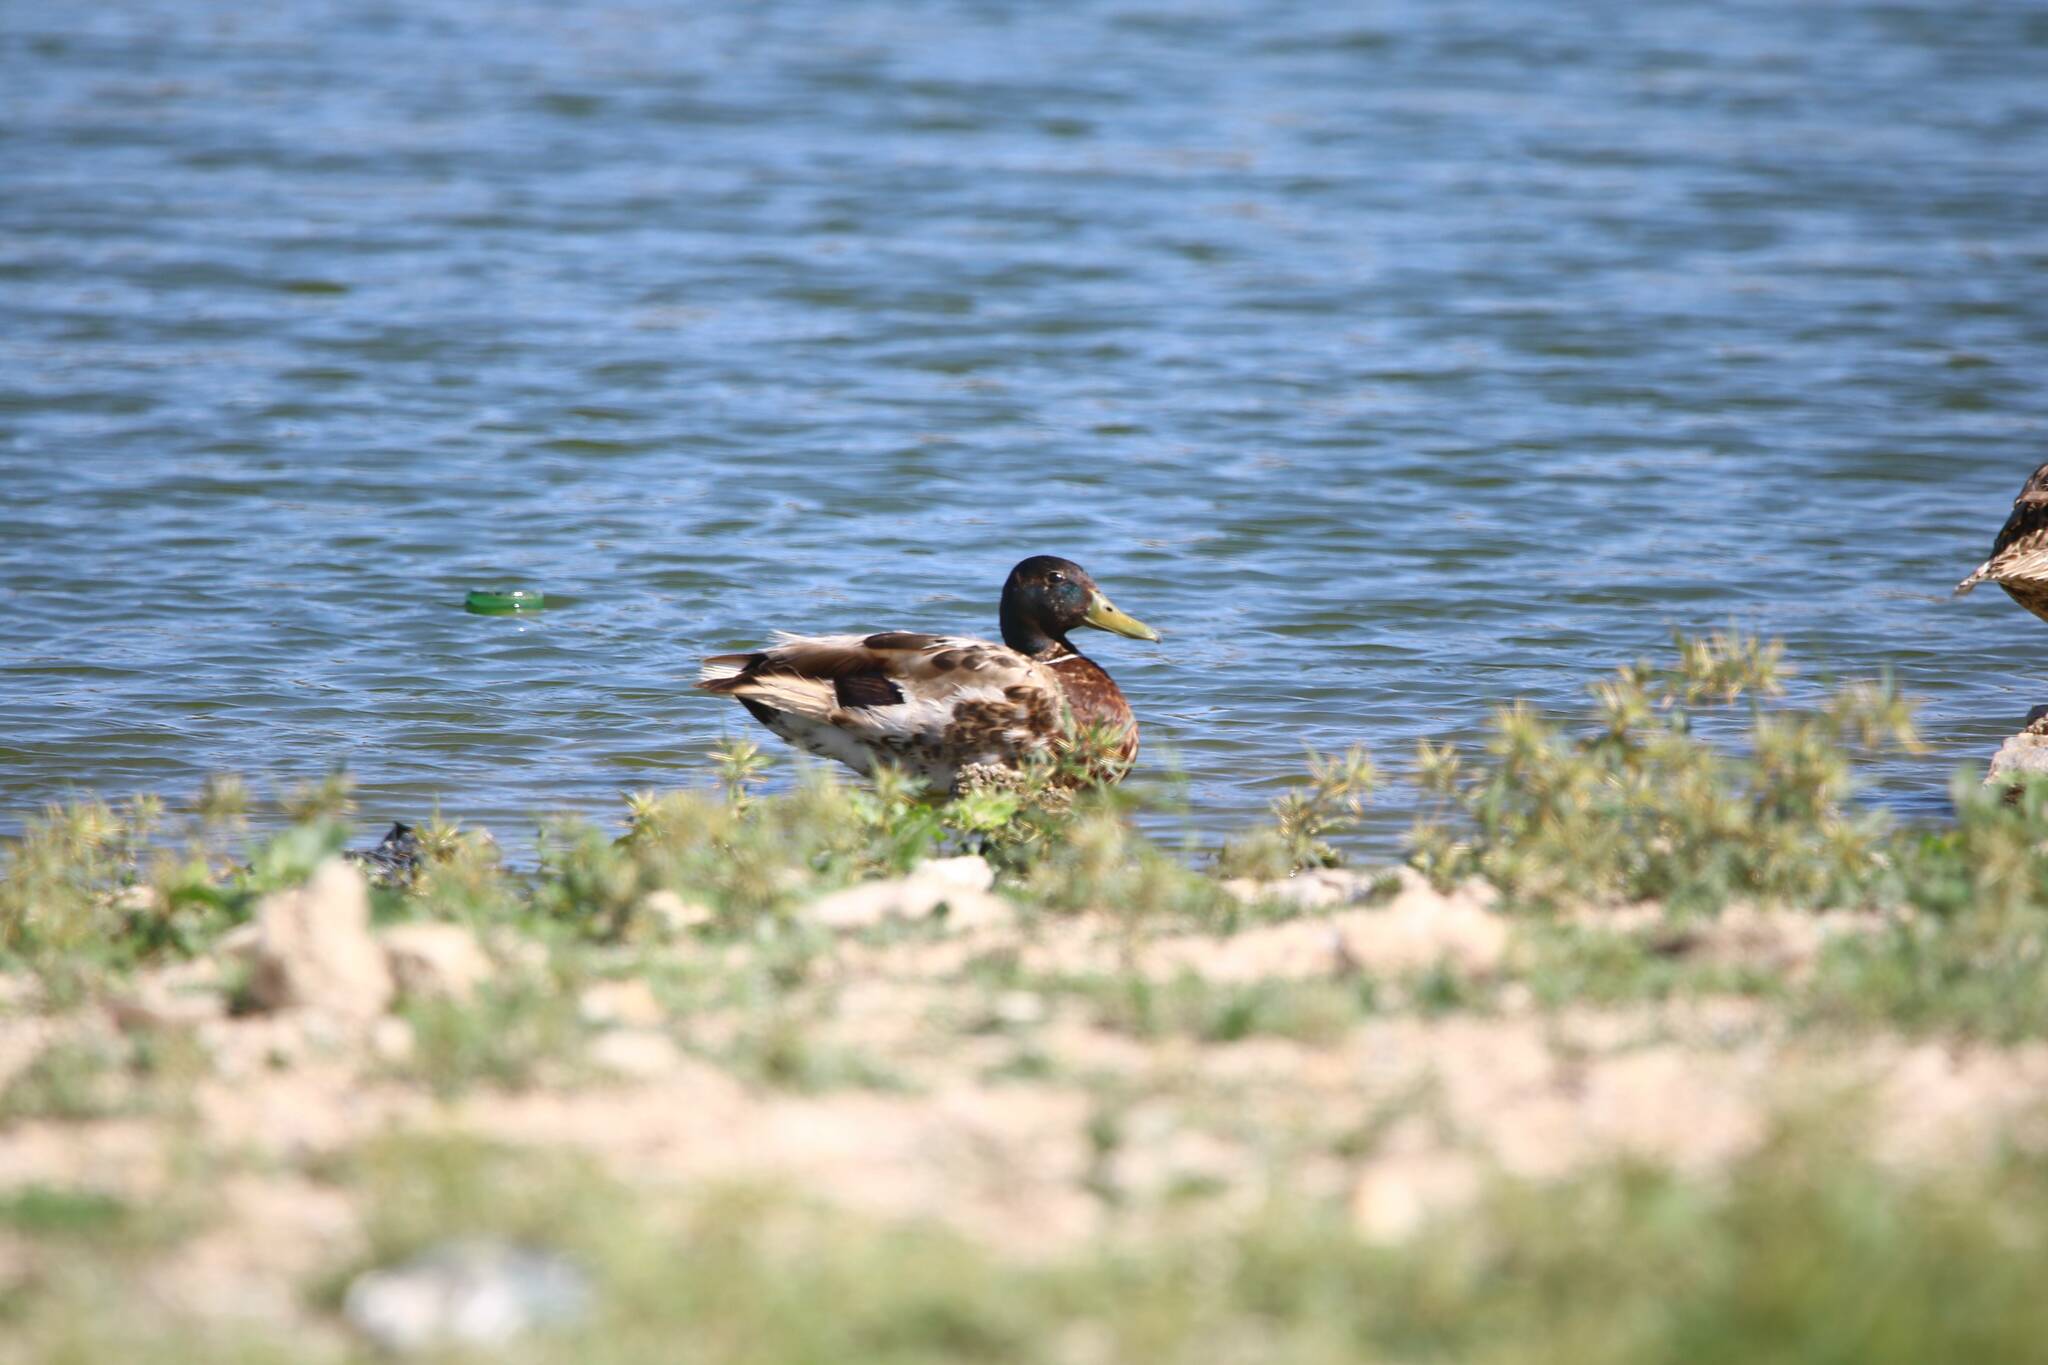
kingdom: Animalia
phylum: Chordata
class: Aves
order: Anseriformes
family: Anatidae
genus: Anas
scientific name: Anas platyrhynchos
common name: Mallard
